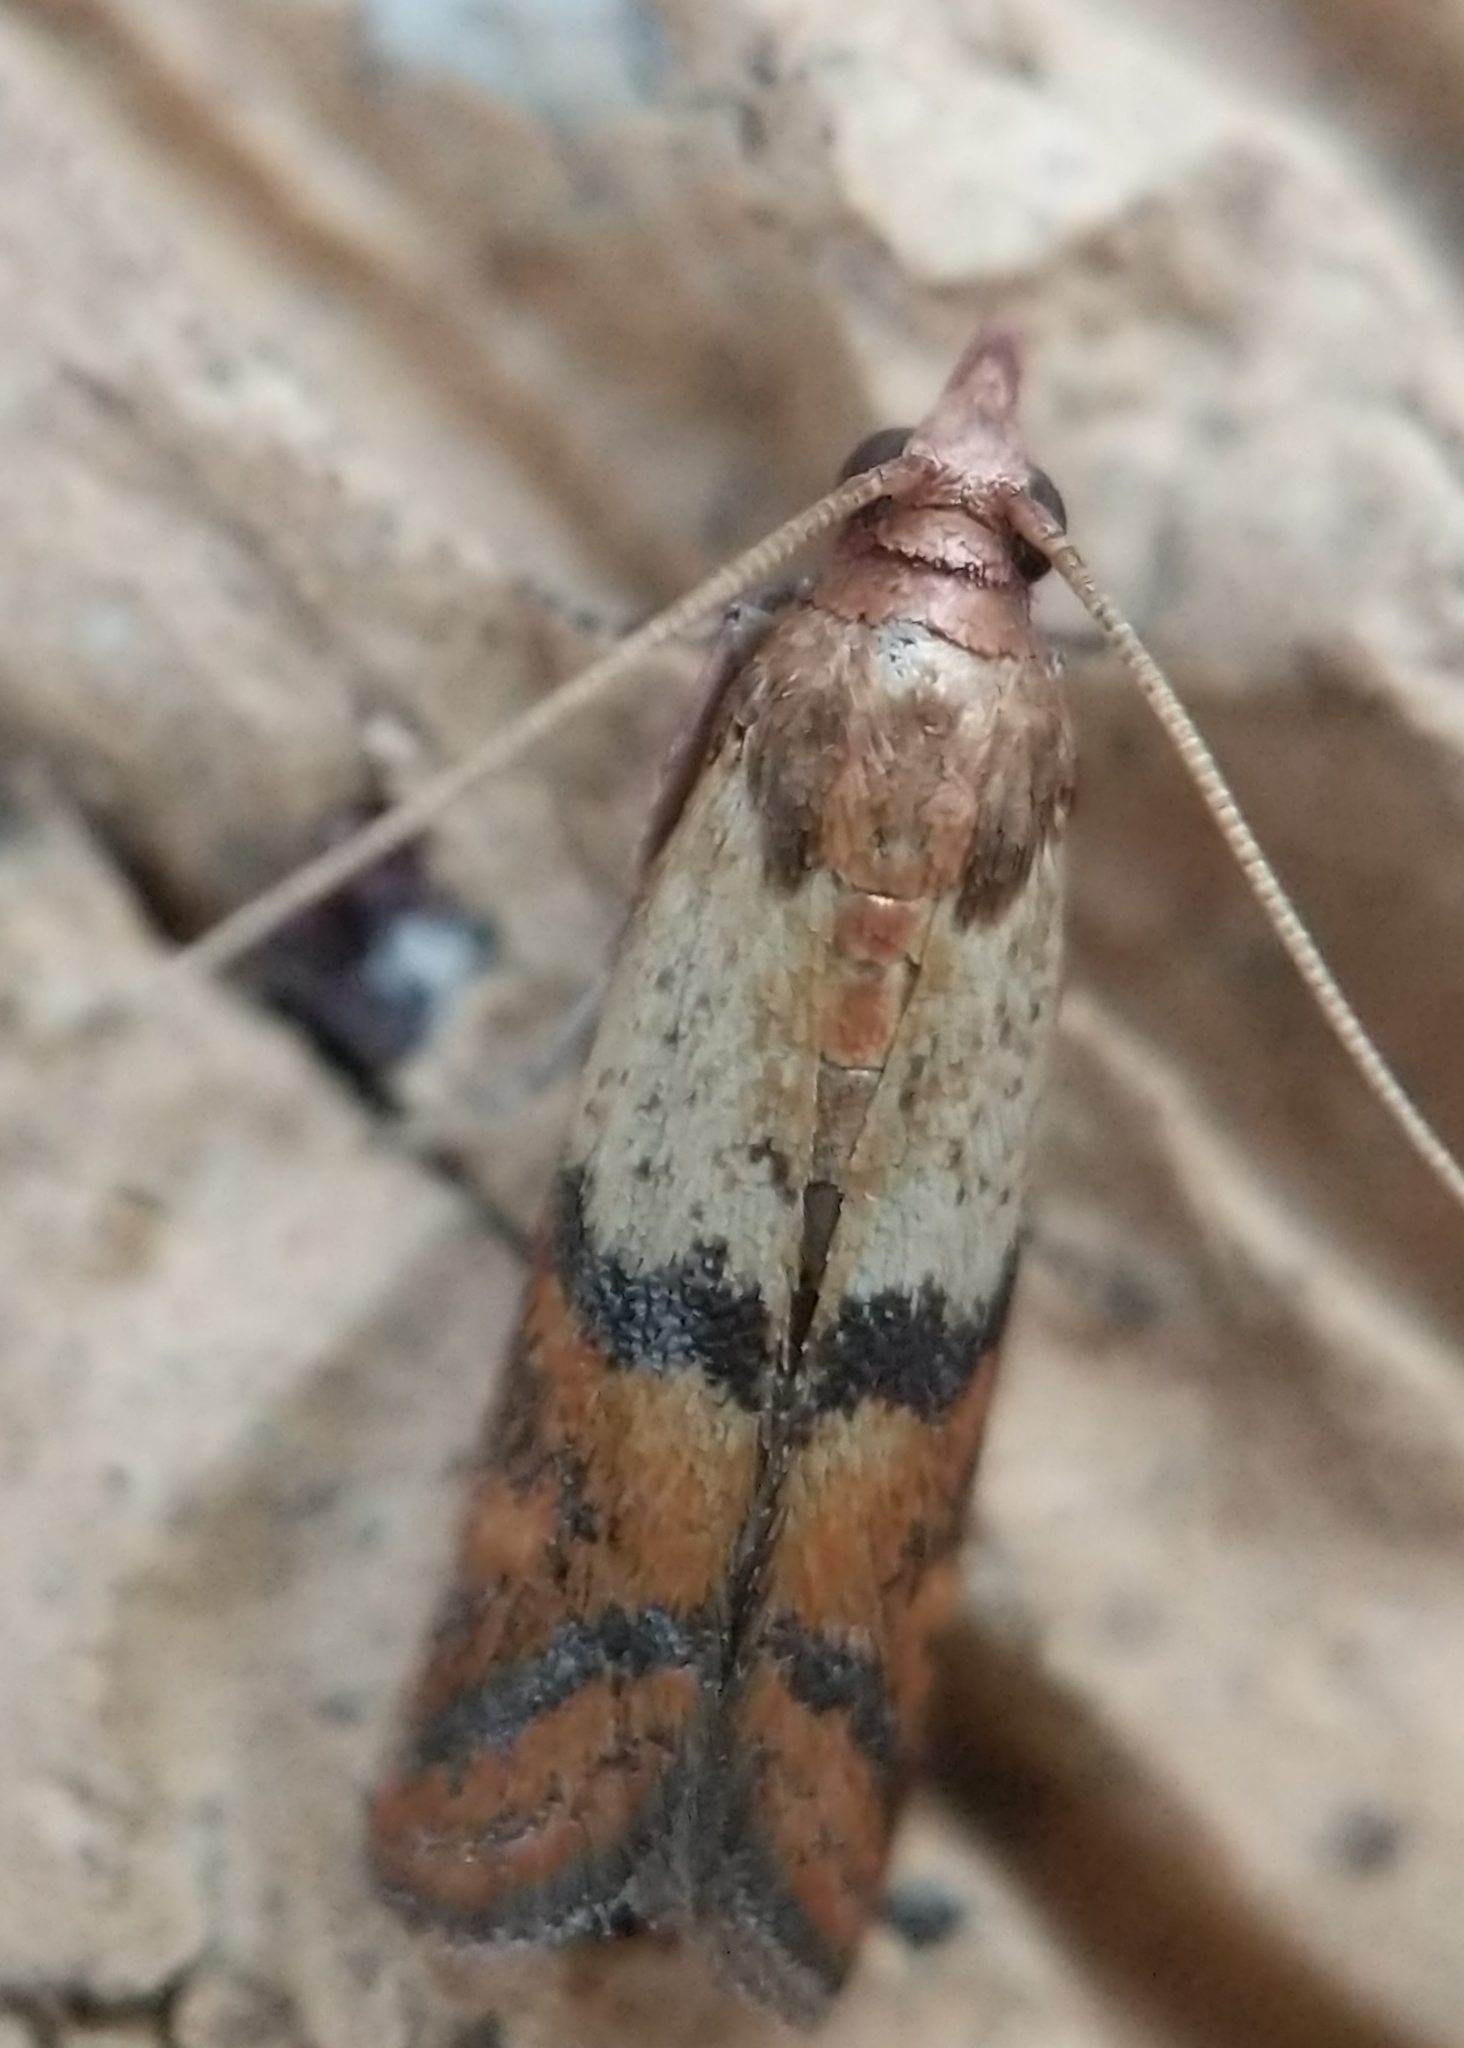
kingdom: Animalia
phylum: Arthropoda
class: Insecta
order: Lepidoptera
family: Pyralidae
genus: Plodia
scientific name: Plodia interpunctella
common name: Indian meal moth
